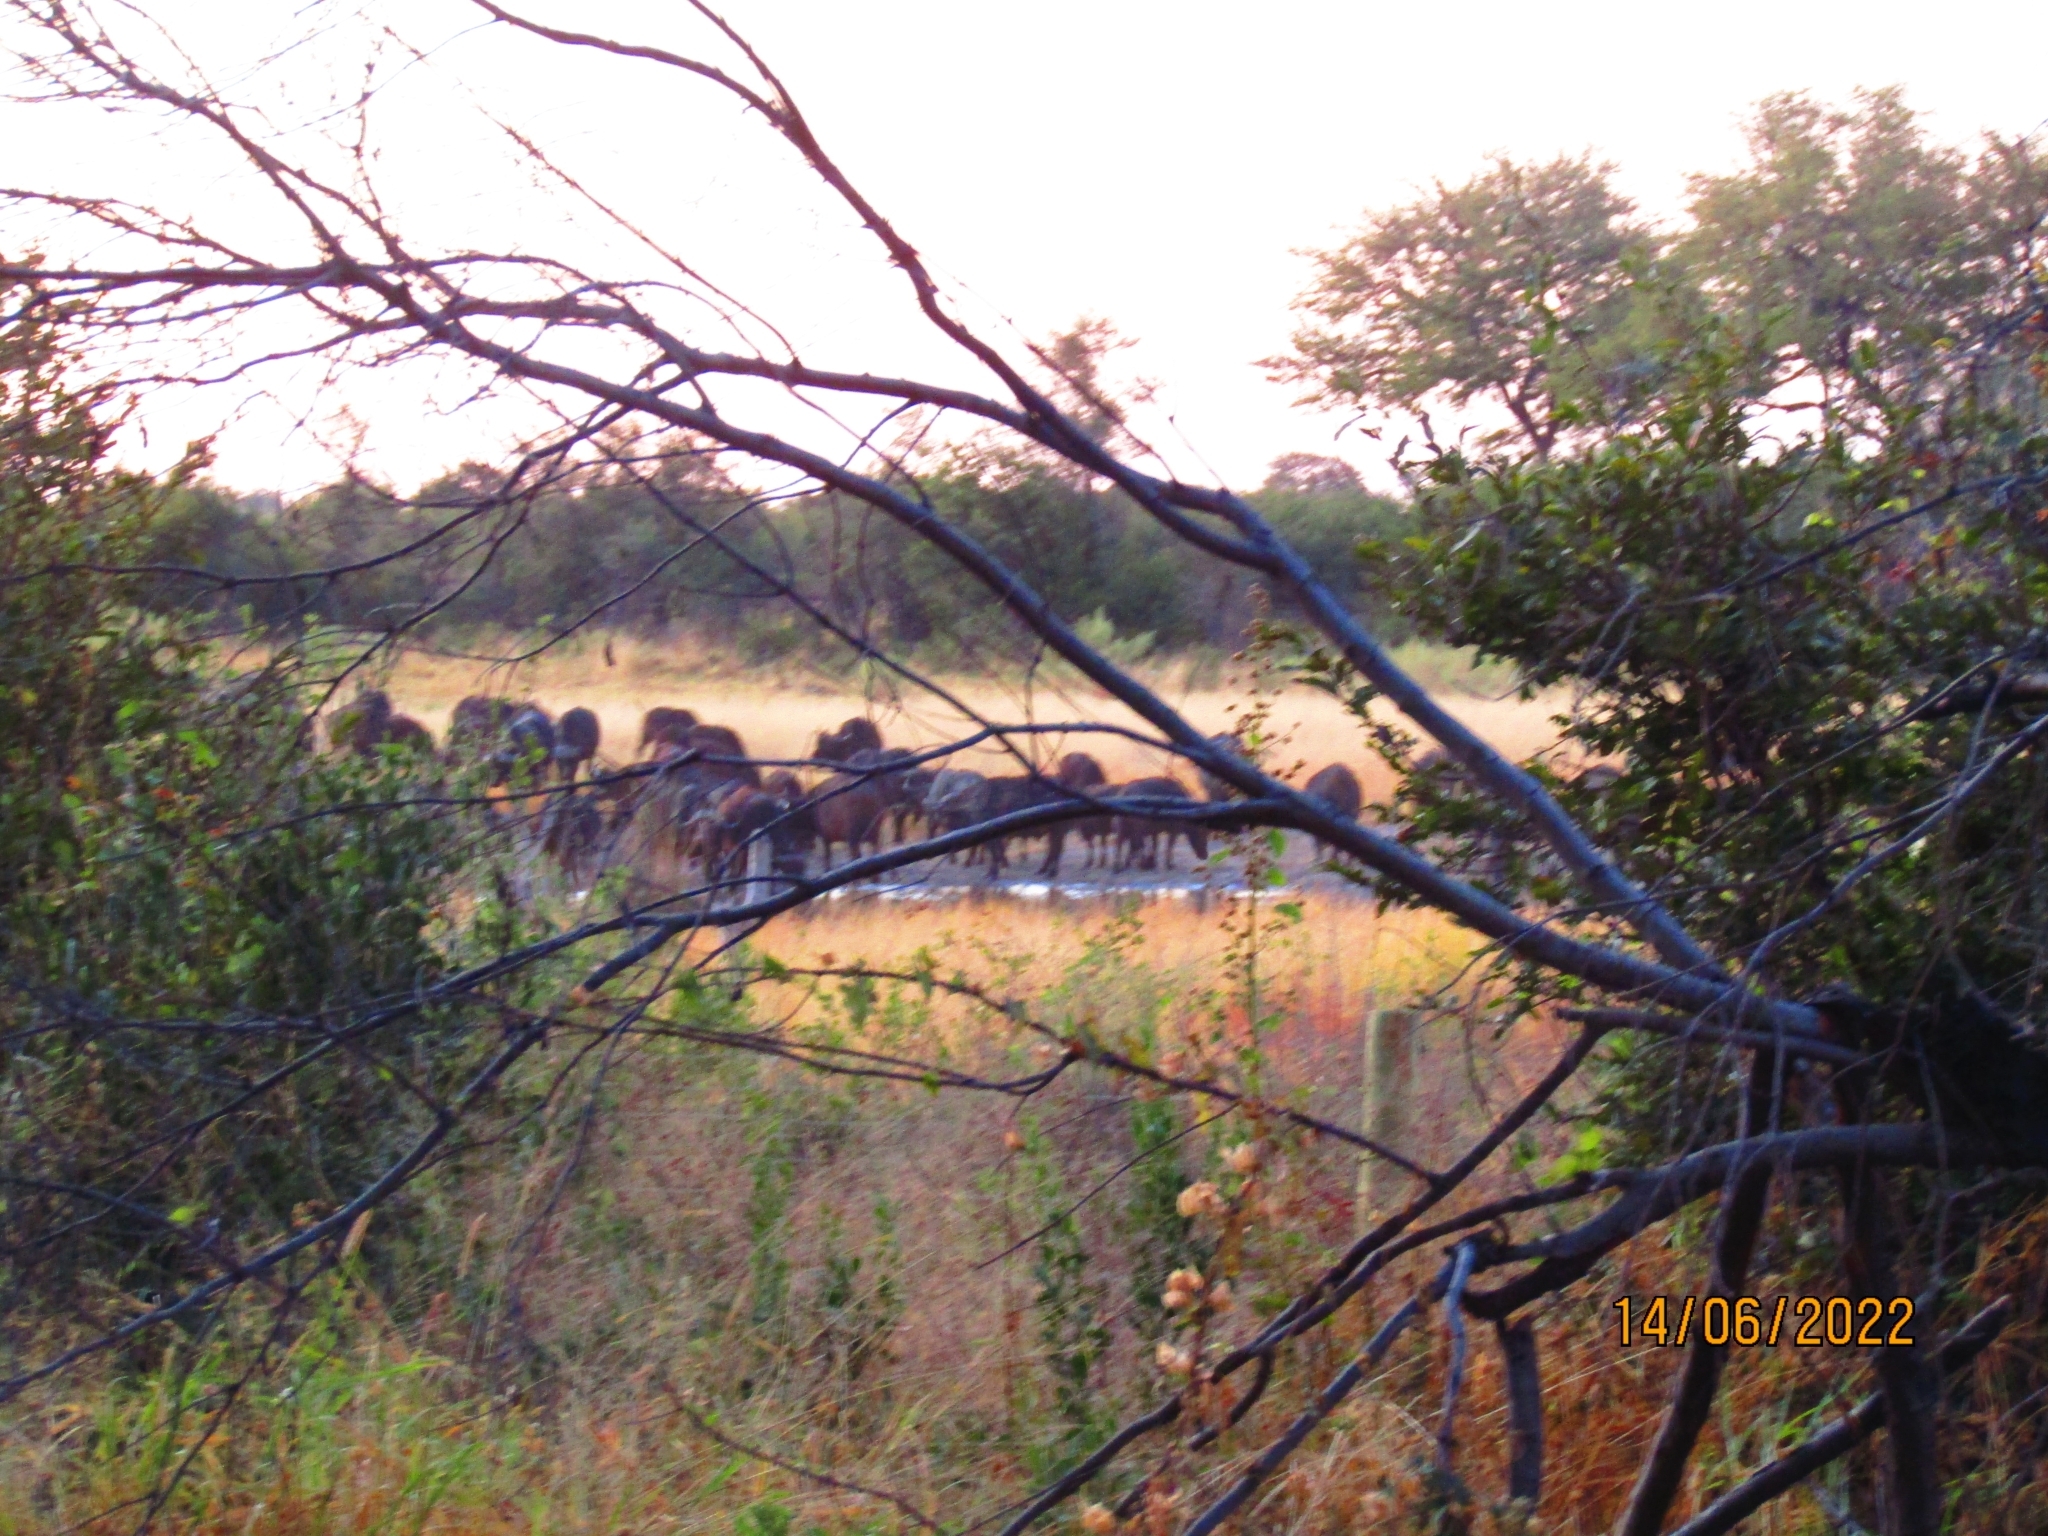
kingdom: Animalia
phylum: Chordata
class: Mammalia
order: Artiodactyla
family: Bovidae
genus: Syncerus
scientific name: Syncerus caffer
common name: African buffalo
